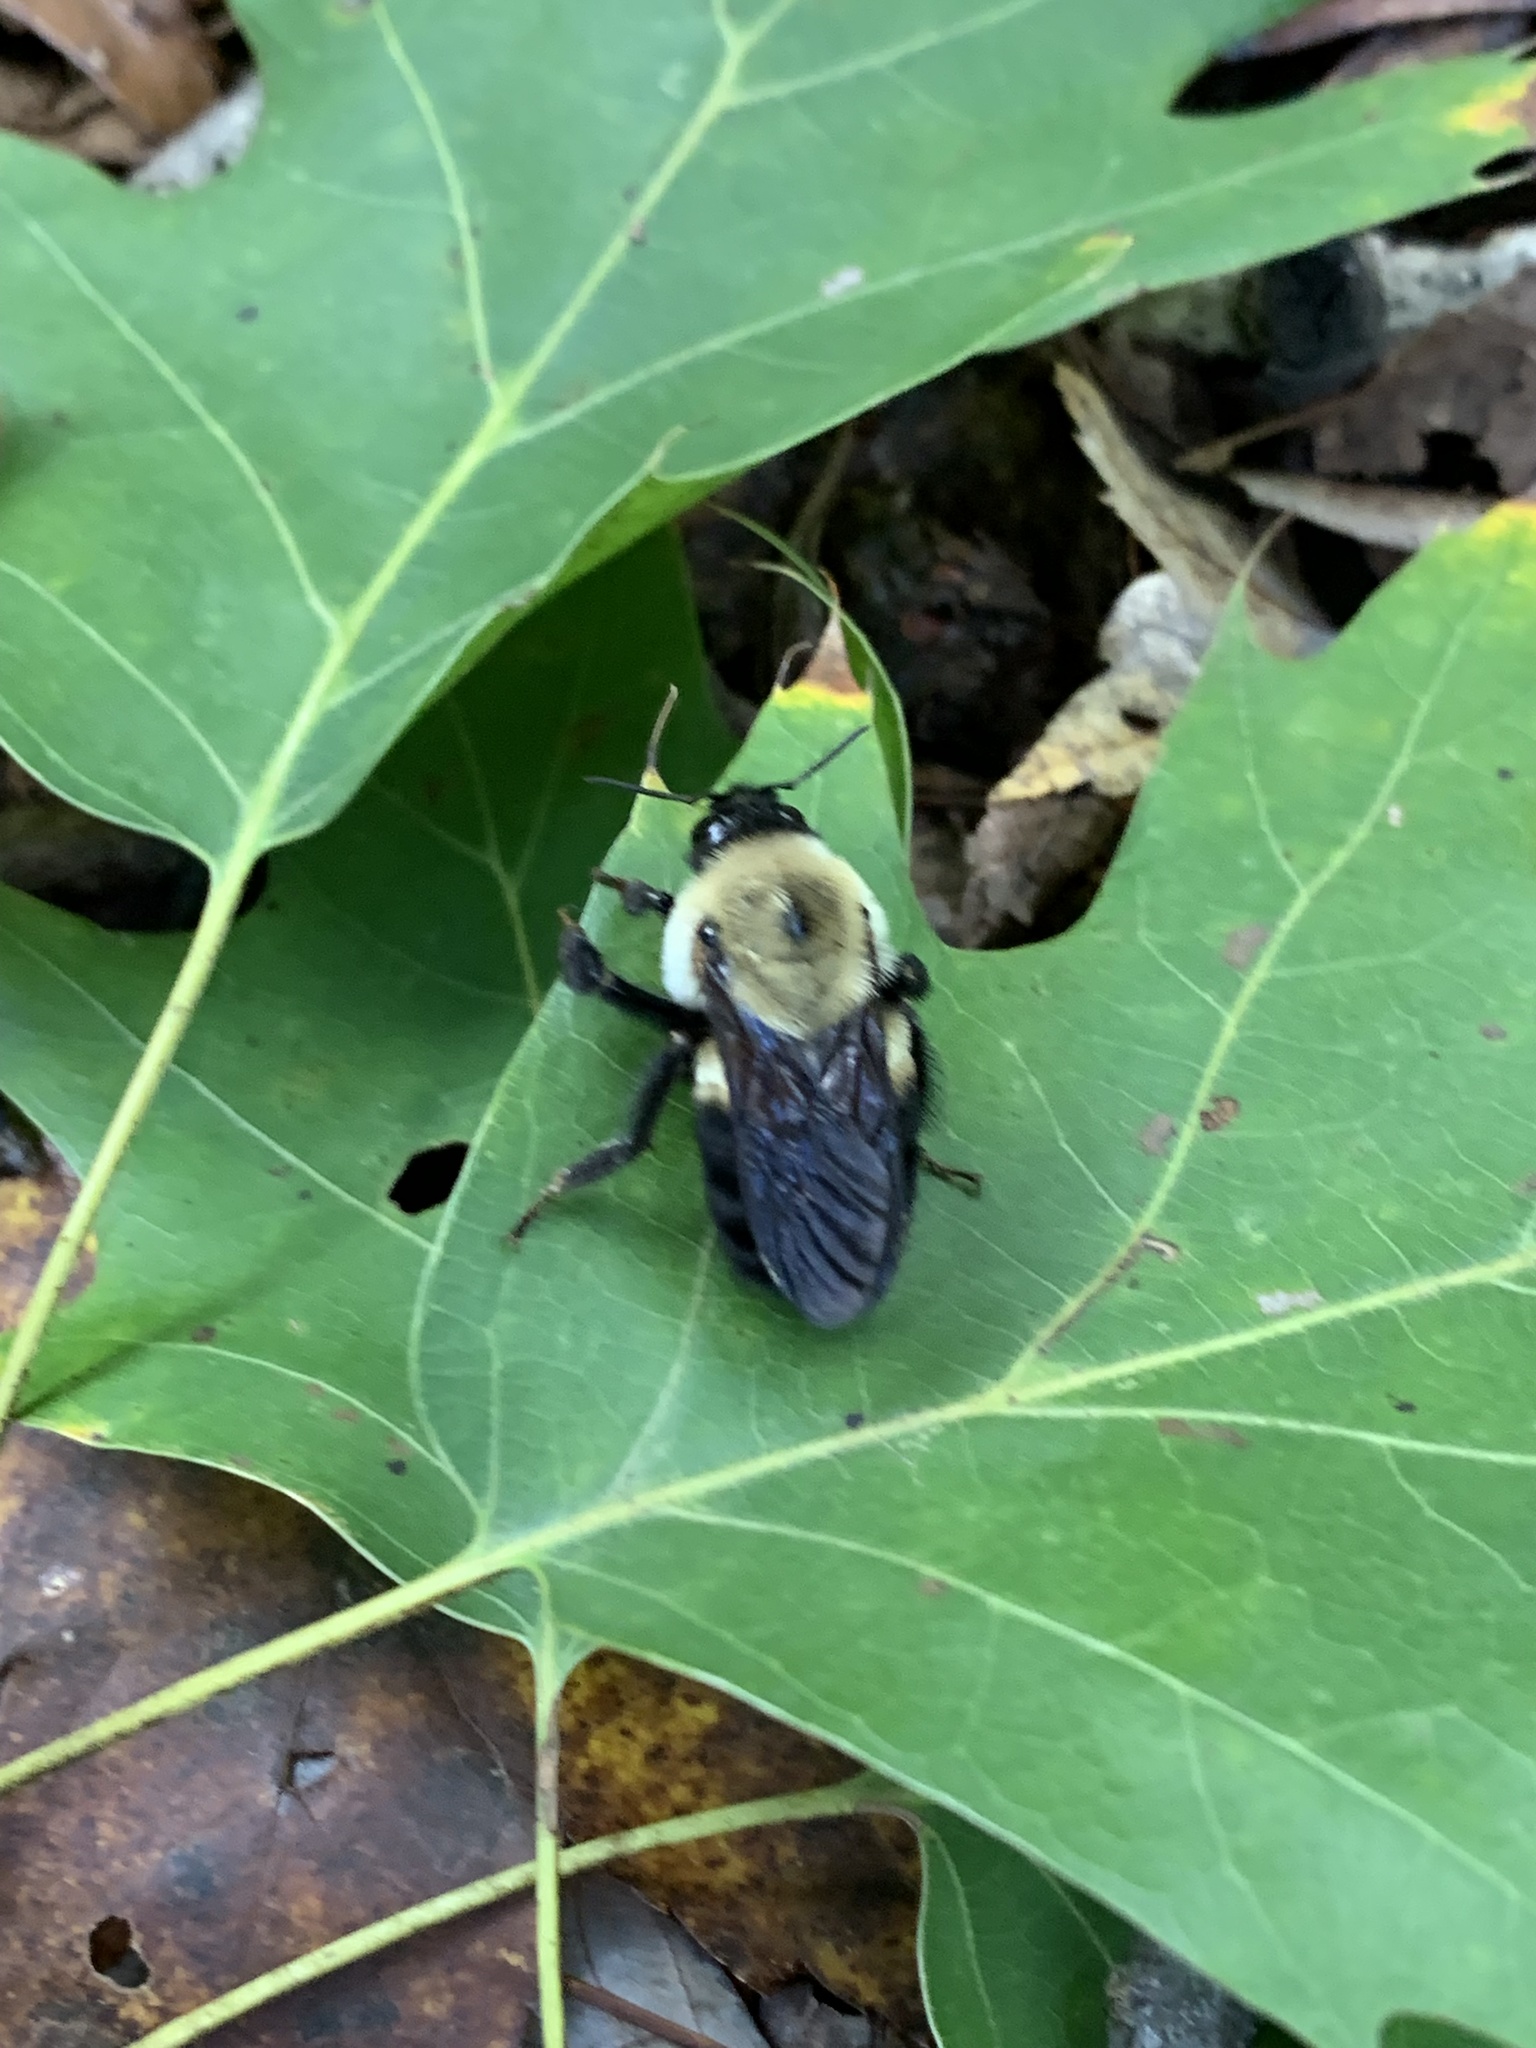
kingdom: Animalia
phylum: Arthropoda
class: Insecta
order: Hymenoptera
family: Apidae
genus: Bombus
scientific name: Bombus griseocollis
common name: Brown-belted bumble bee
